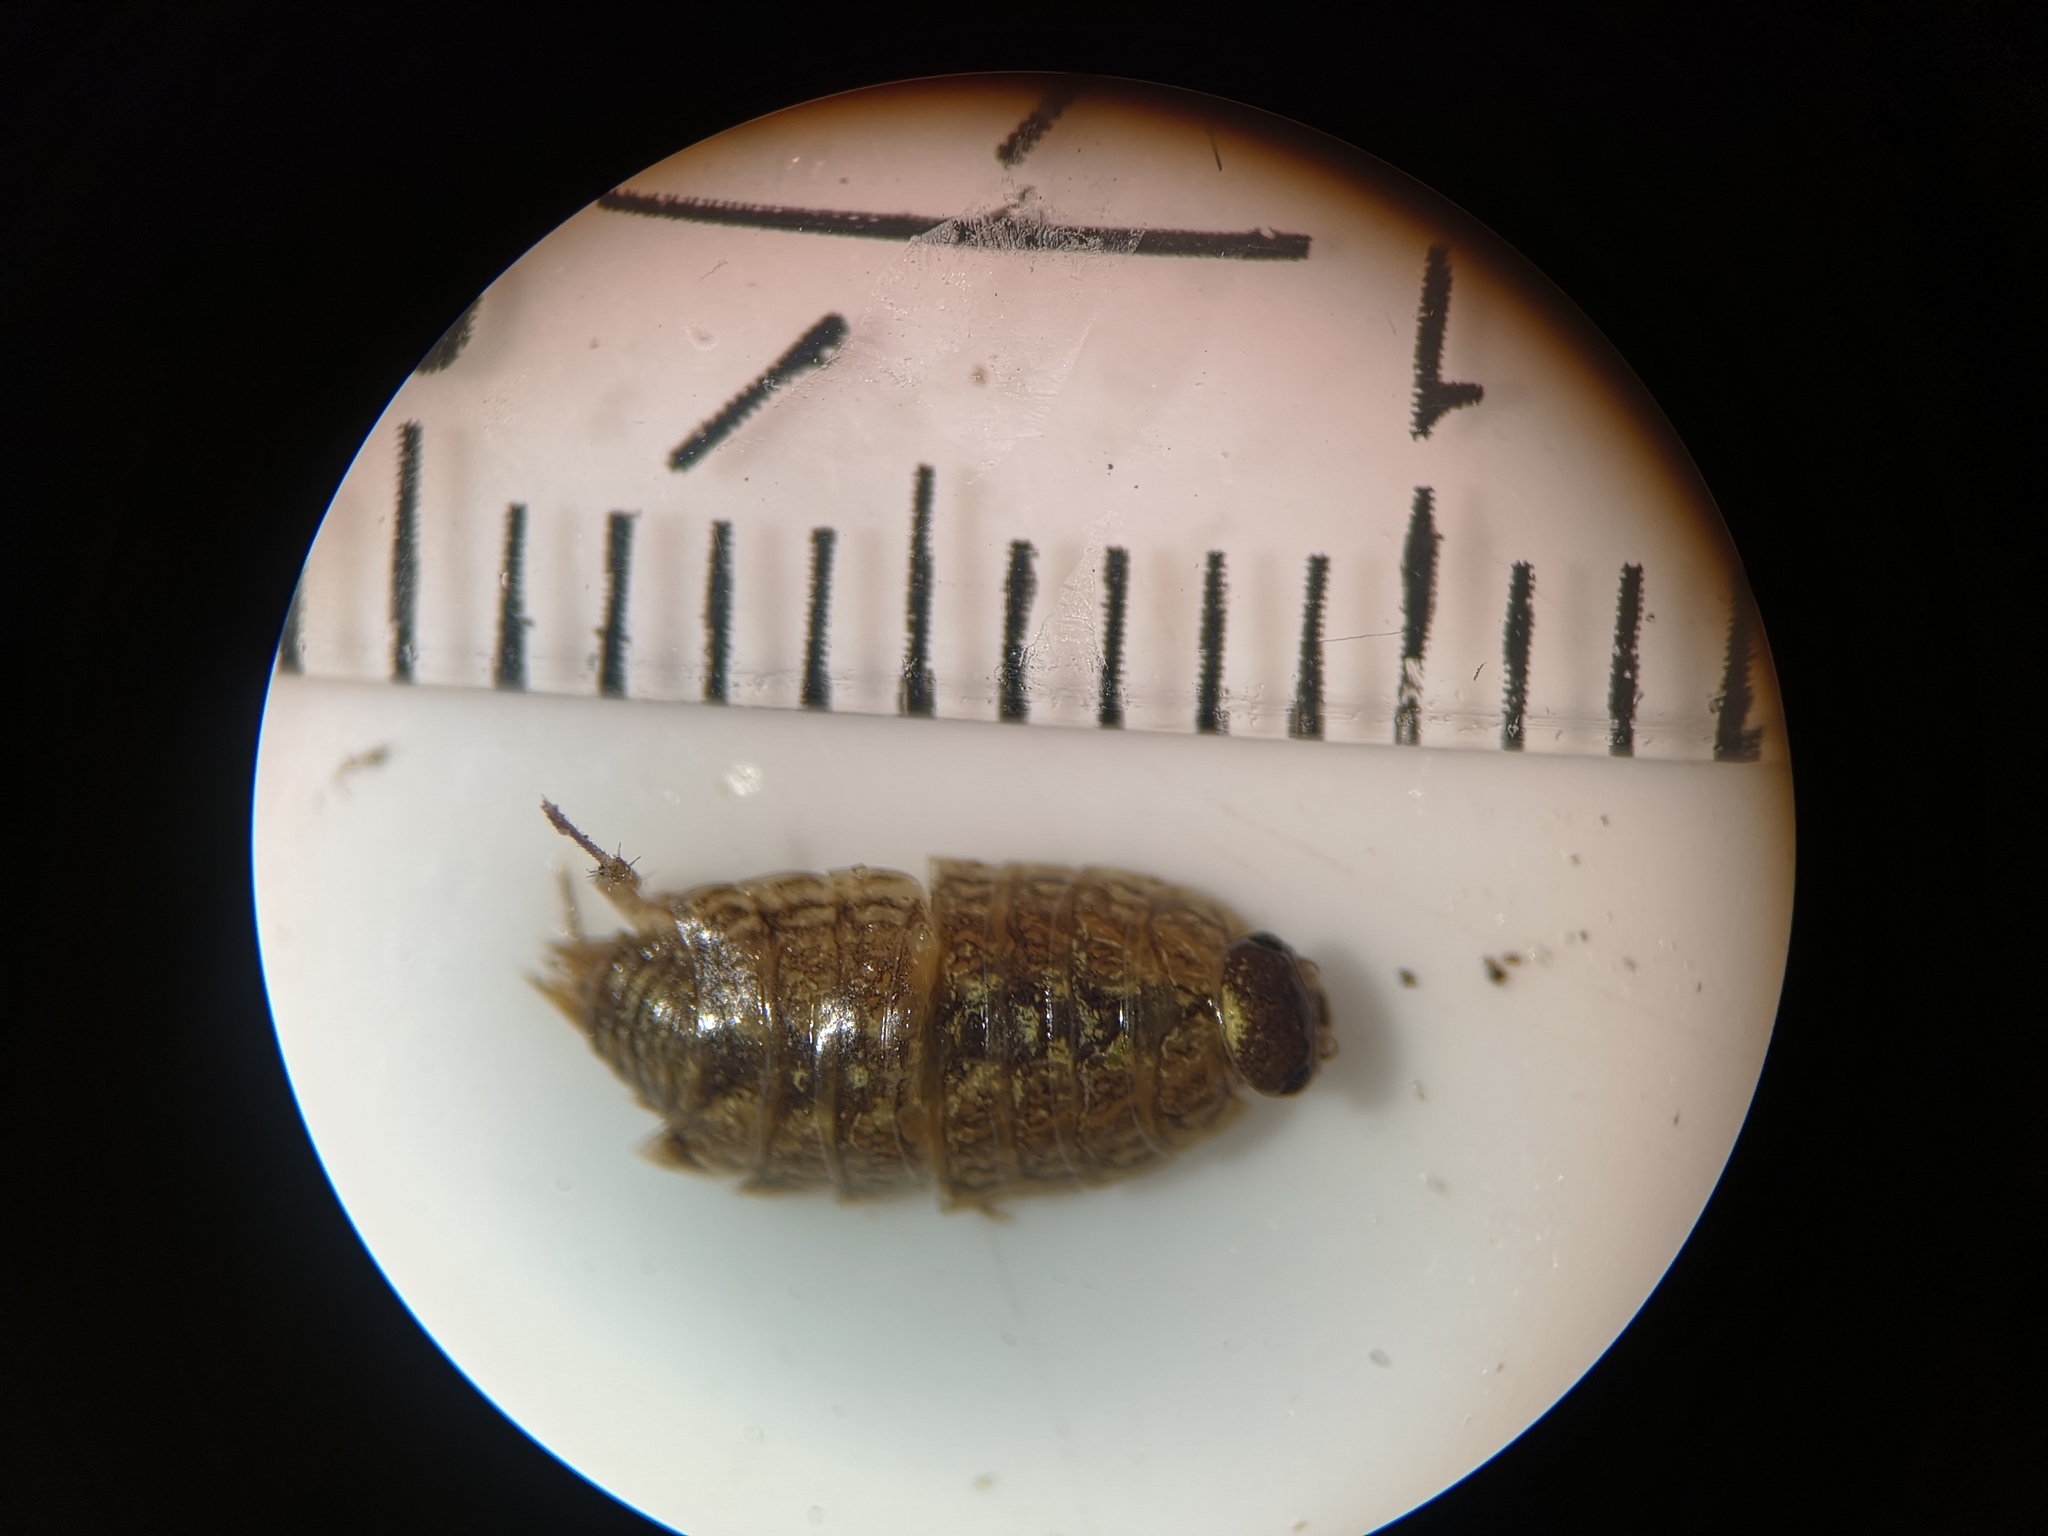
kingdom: Animalia
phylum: Arthropoda
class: Malacostraca
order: Isopoda
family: Philosciidae
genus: Philoscia
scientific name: Philoscia muscorum
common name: Common striped woodlouse
